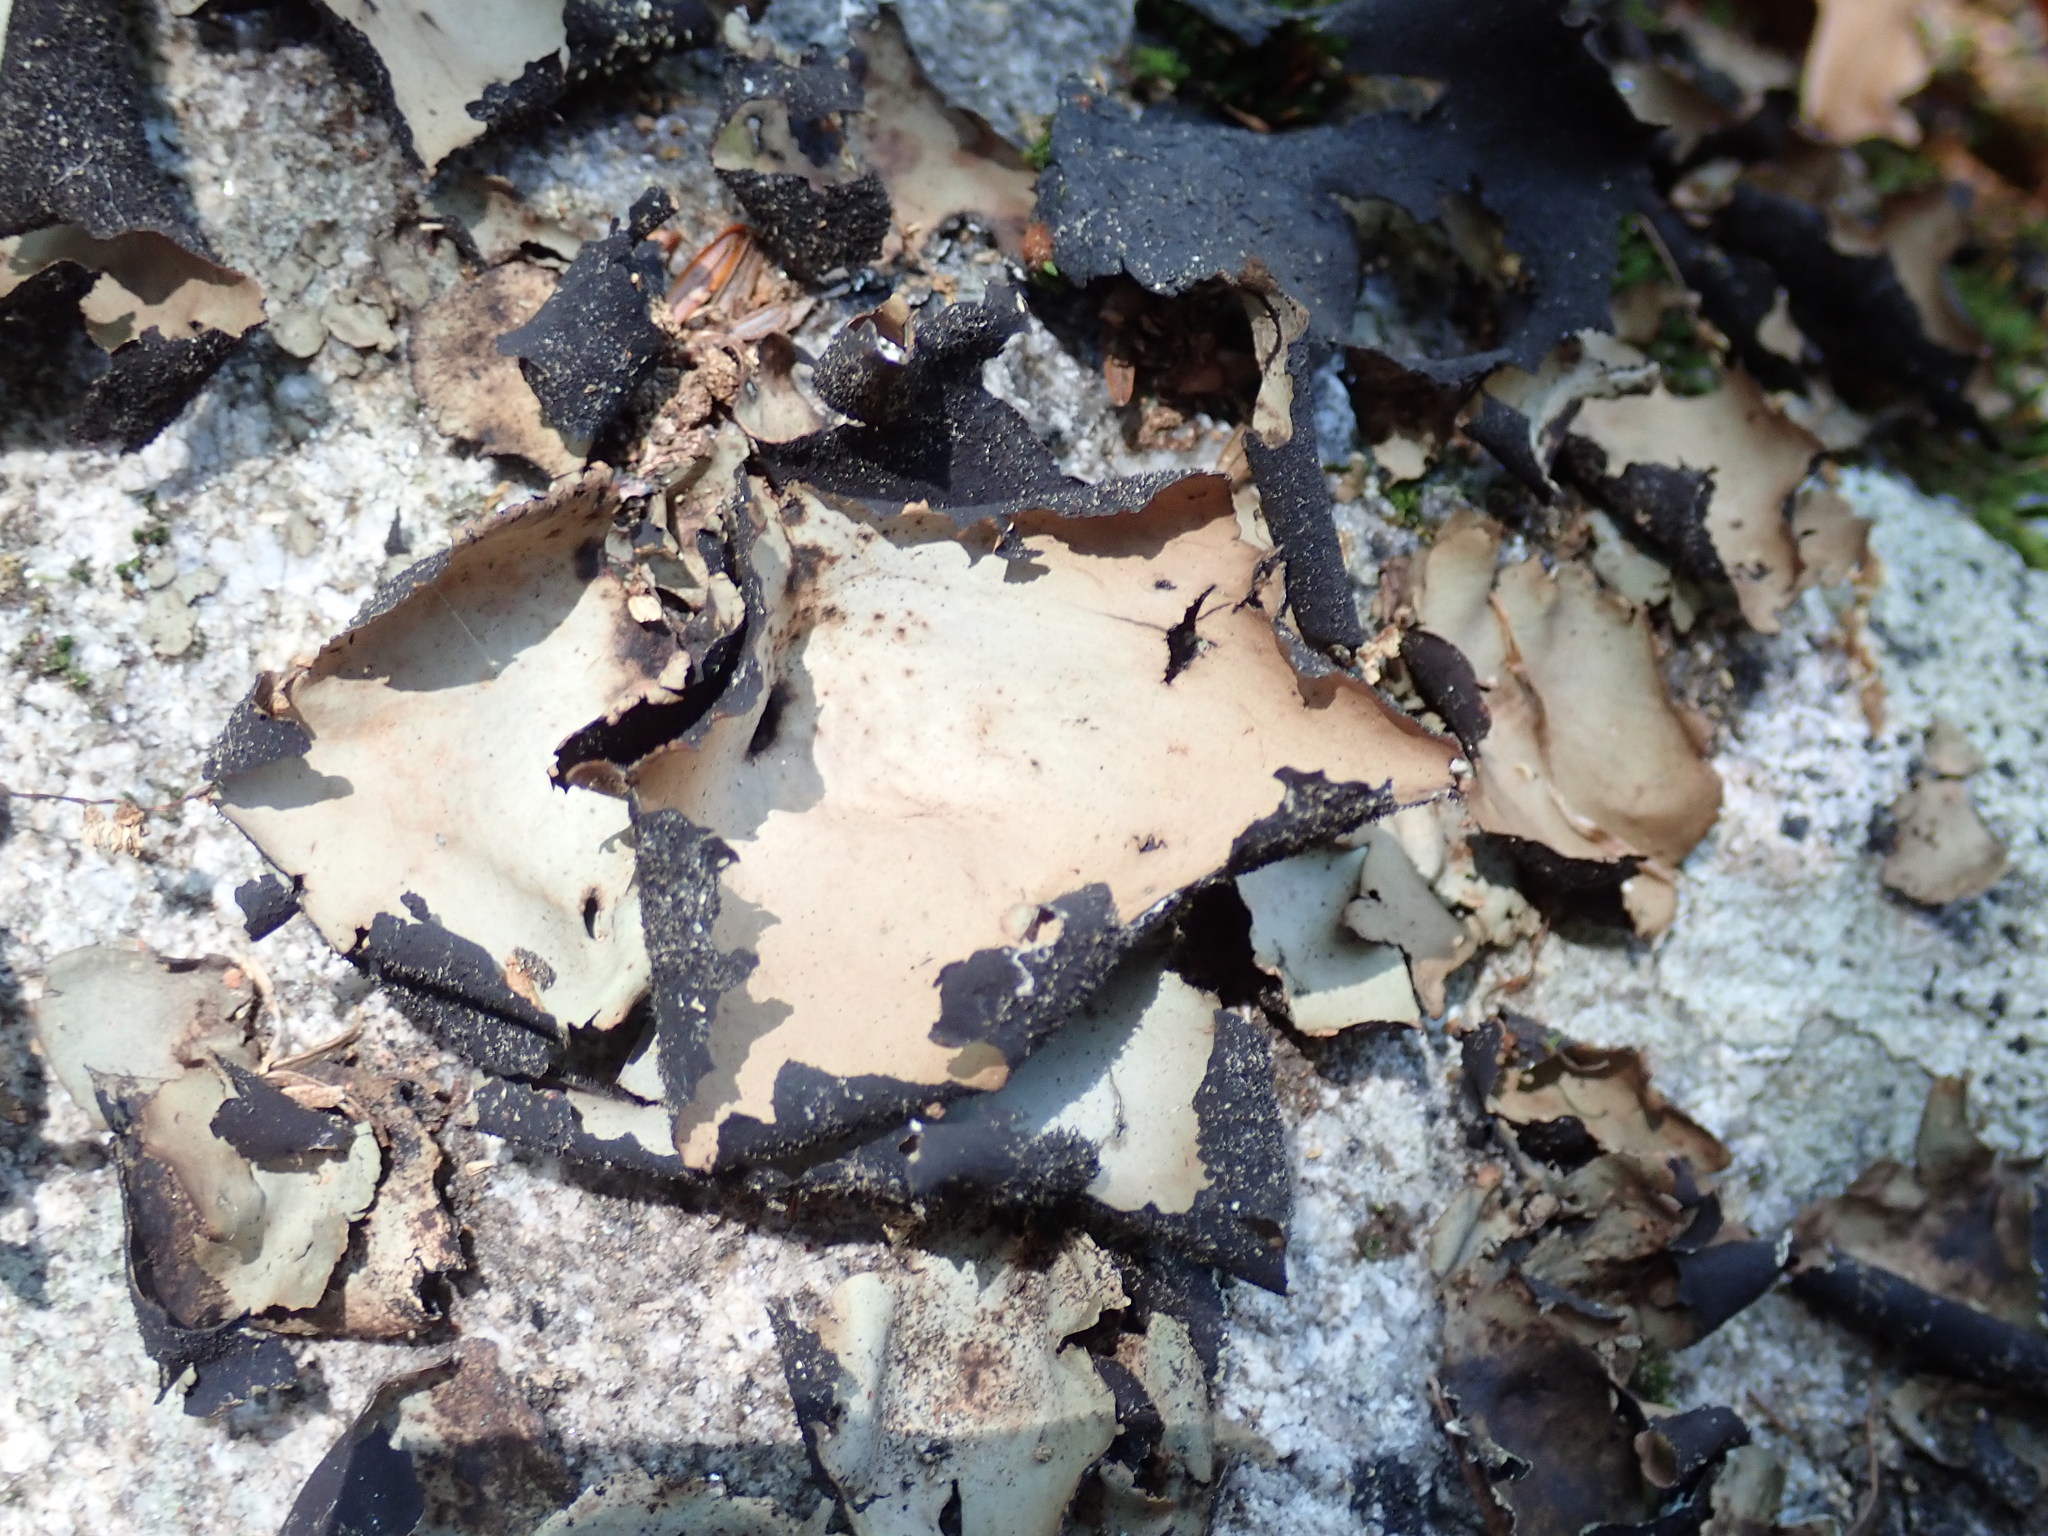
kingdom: Fungi
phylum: Ascomycota
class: Lecanoromycetes
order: Umbilicariales
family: Umbilicariaceae
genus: Umbilicaria
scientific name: Umbilicaria mammulata
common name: Smooth rock tripe
